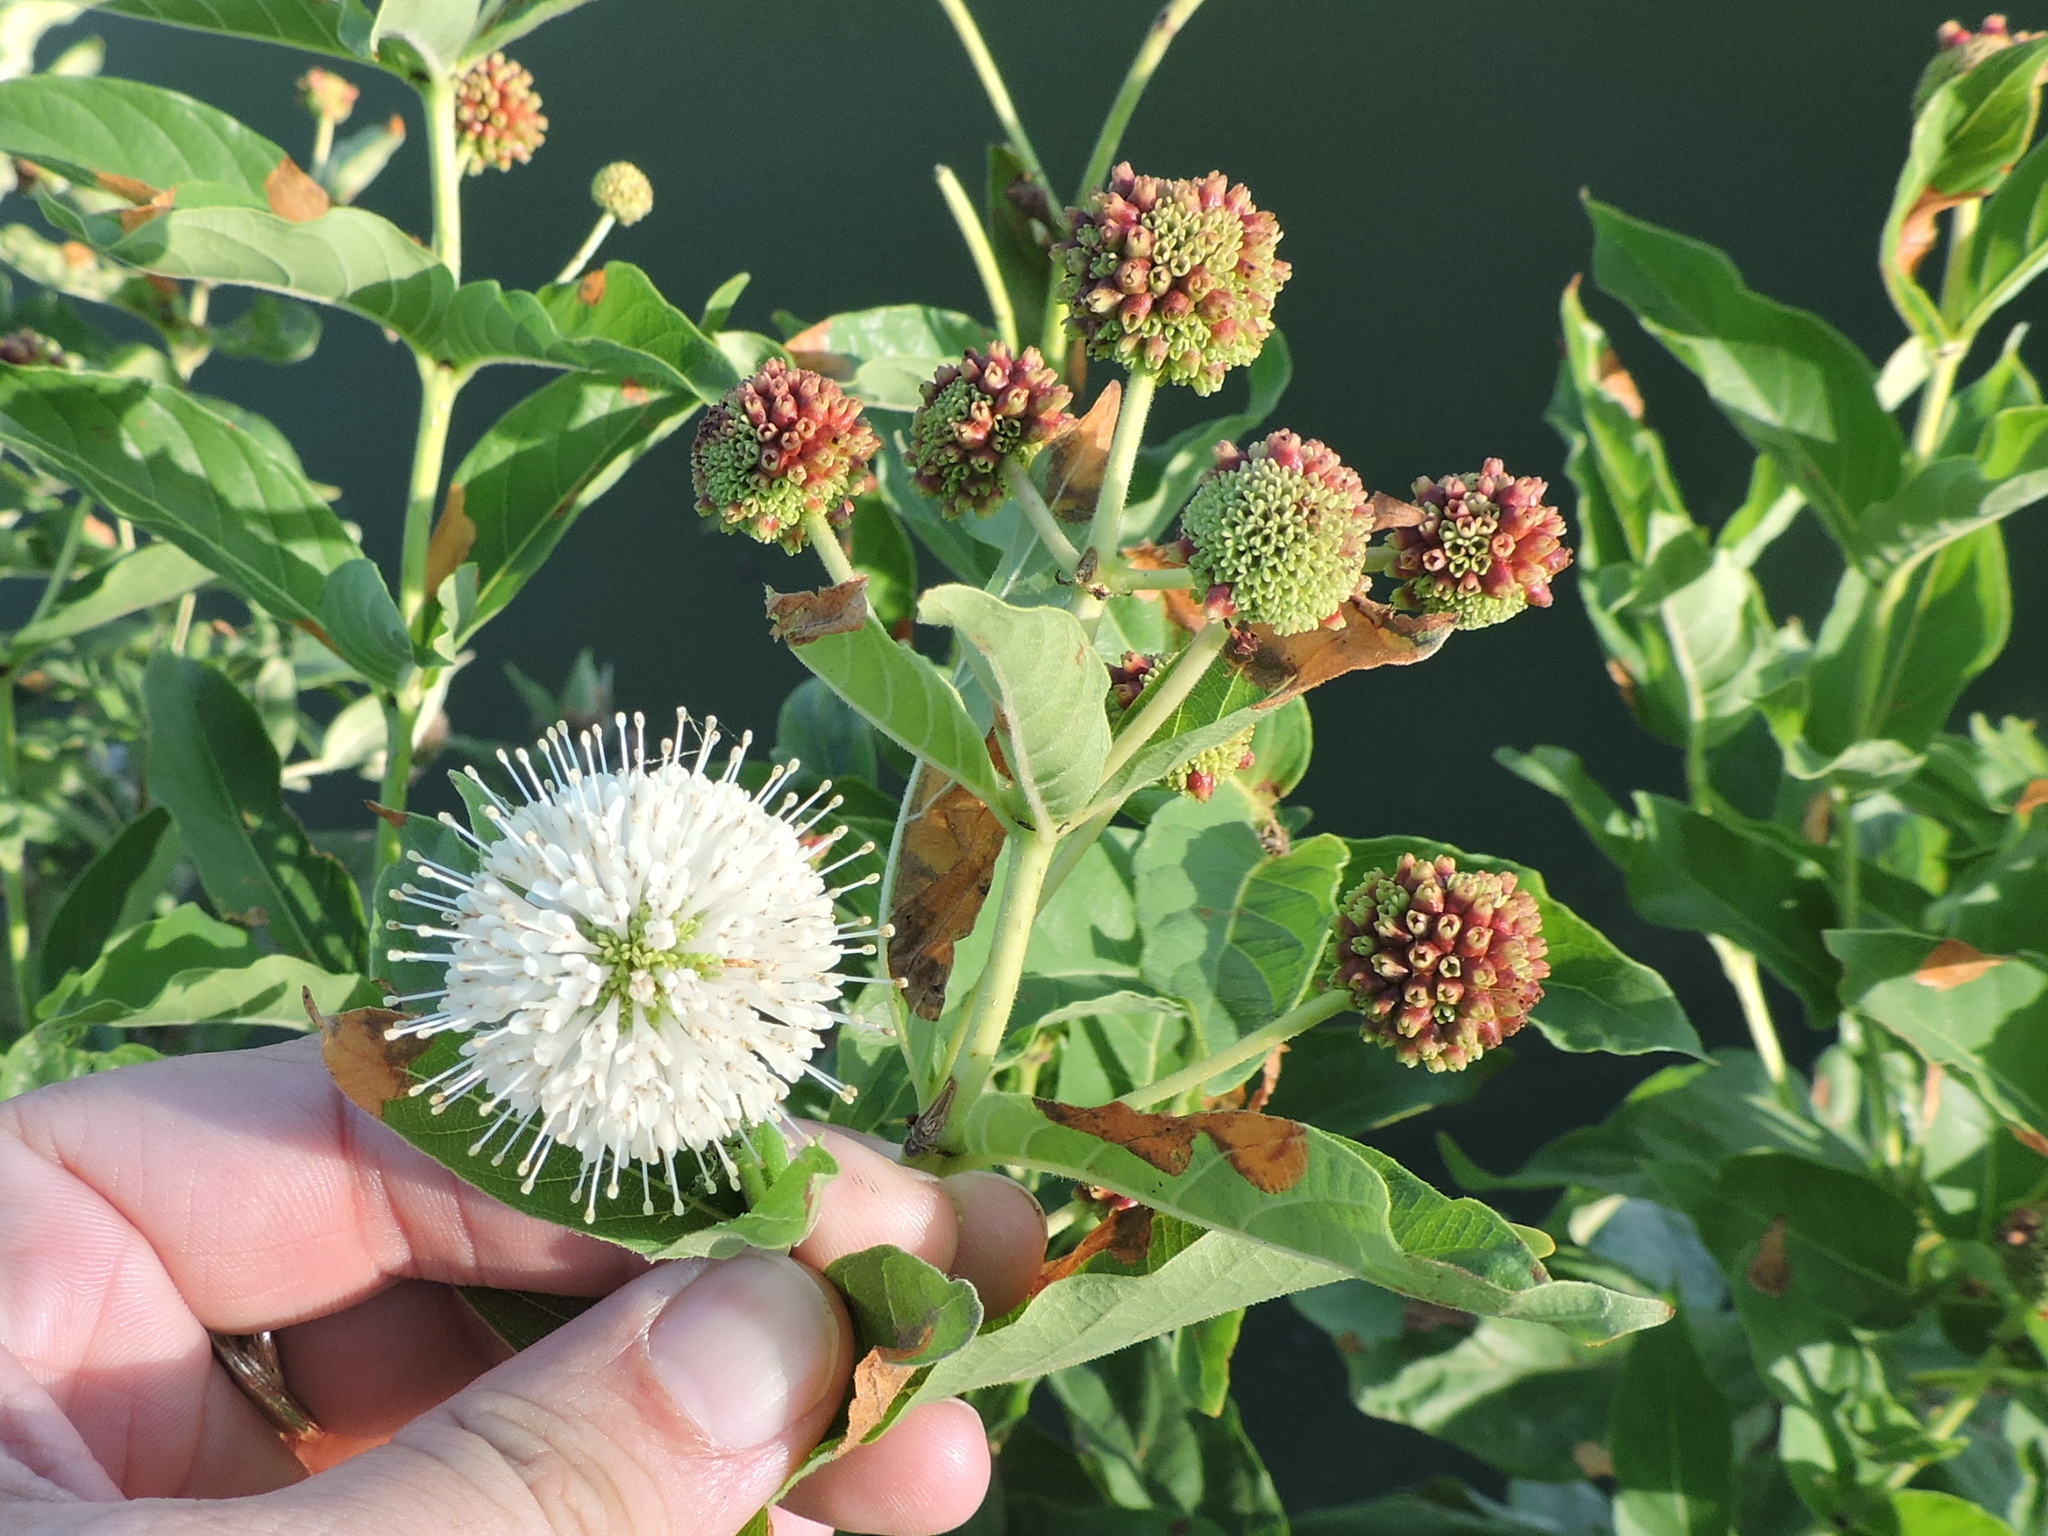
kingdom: Plantae
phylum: Tracheophyta
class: Magnoliopsida
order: Gentianales
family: Rubiaceae
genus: Cephalanthus
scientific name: Cephalanthus occidentalis
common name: Button-willow
